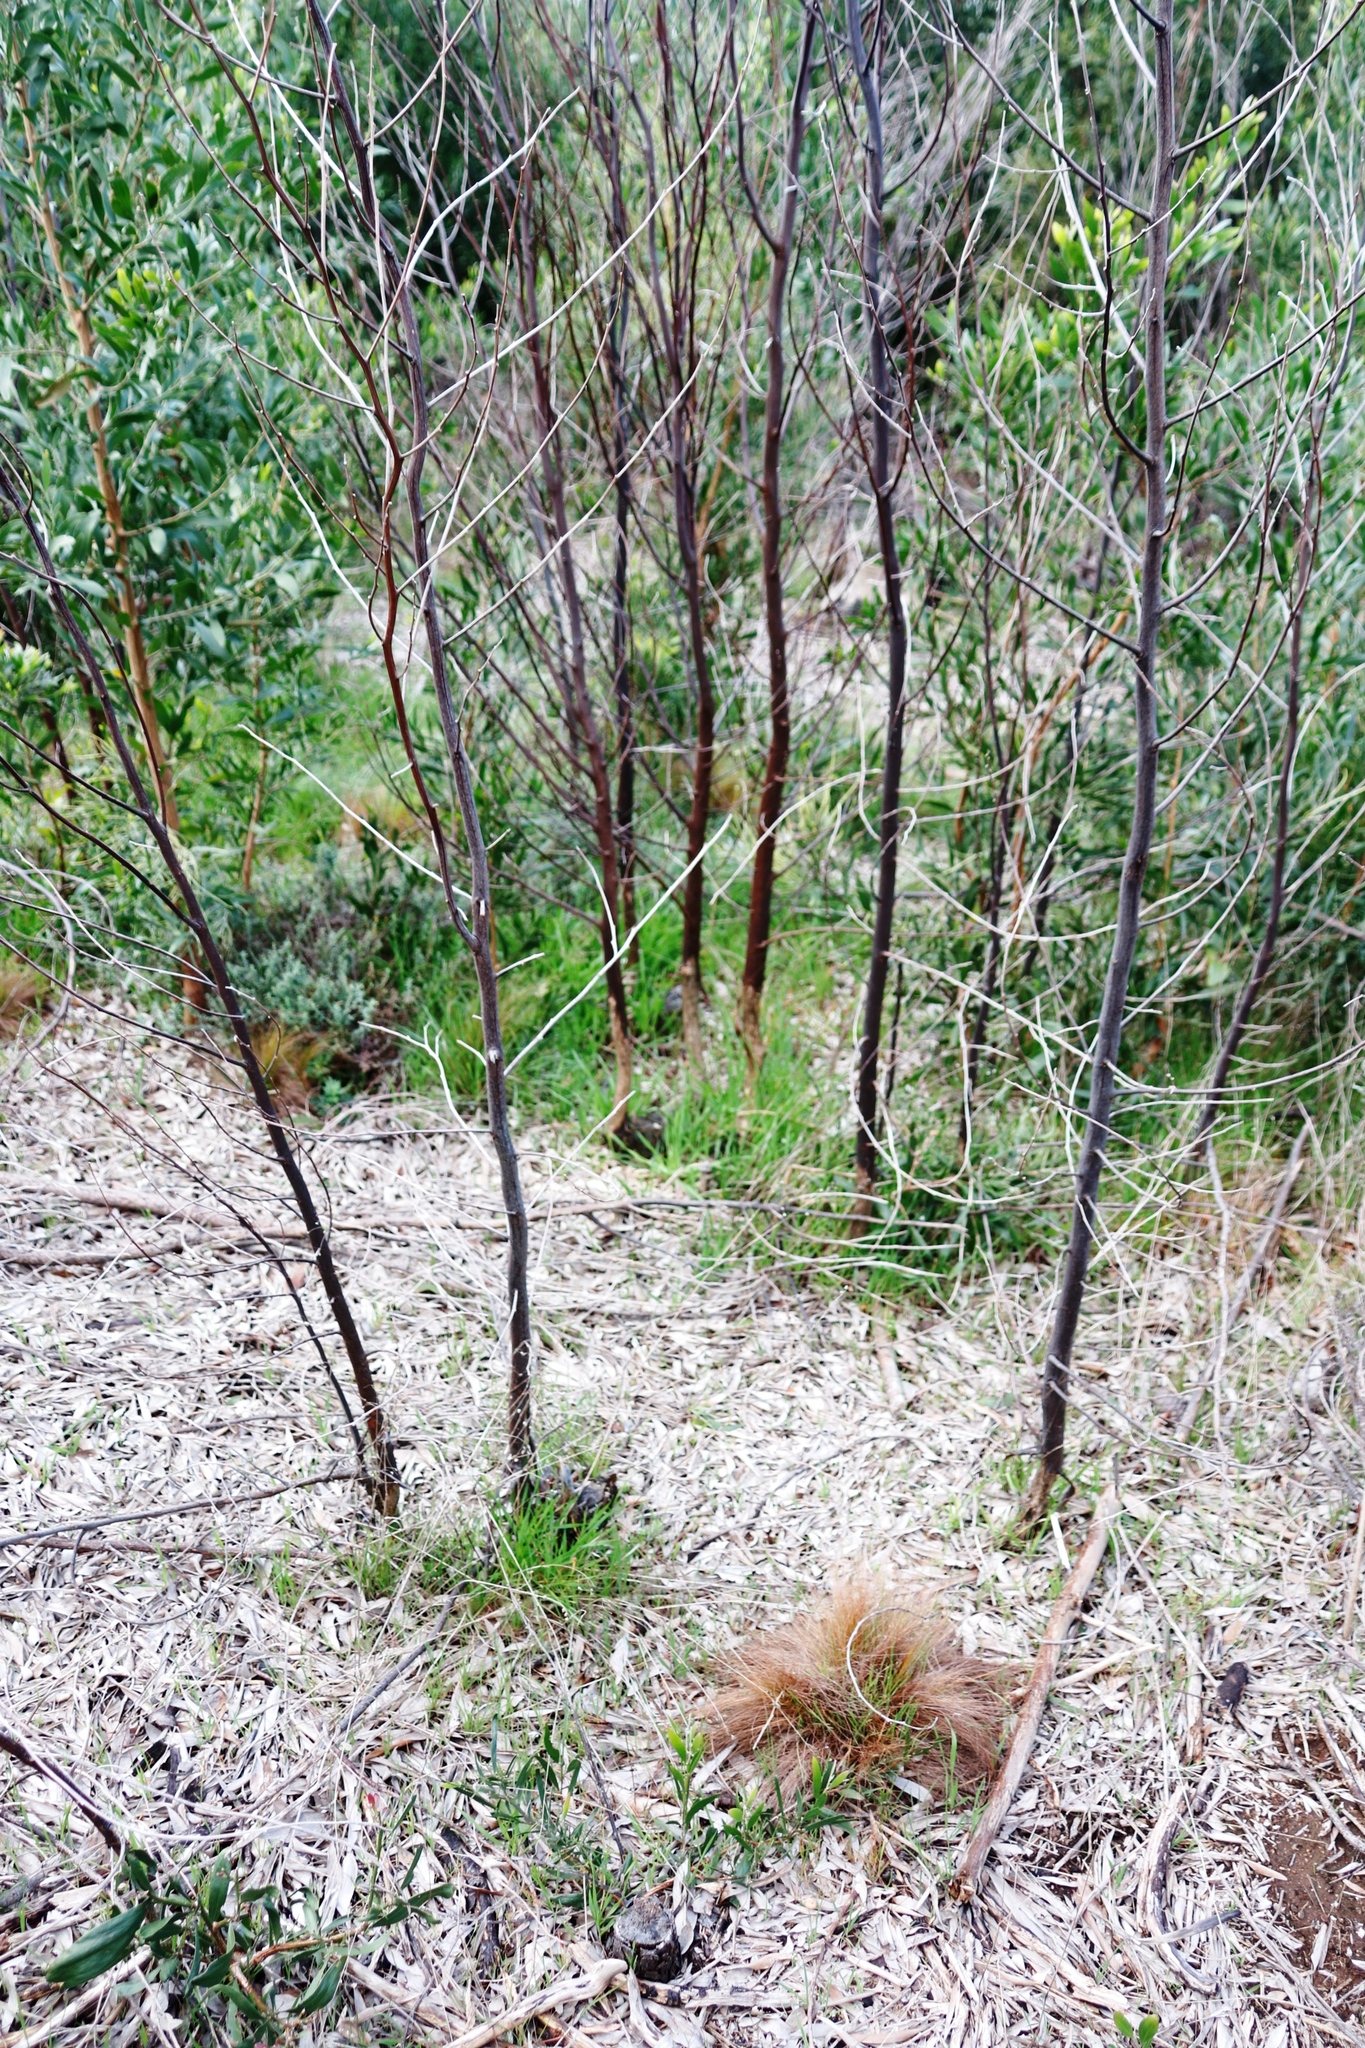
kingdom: Plantae
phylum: Tracheophyta
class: Magnoliopsida
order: Fabales
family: Fabaceae
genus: Acacia
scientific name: Acacia melanoxylon
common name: Blackwood
